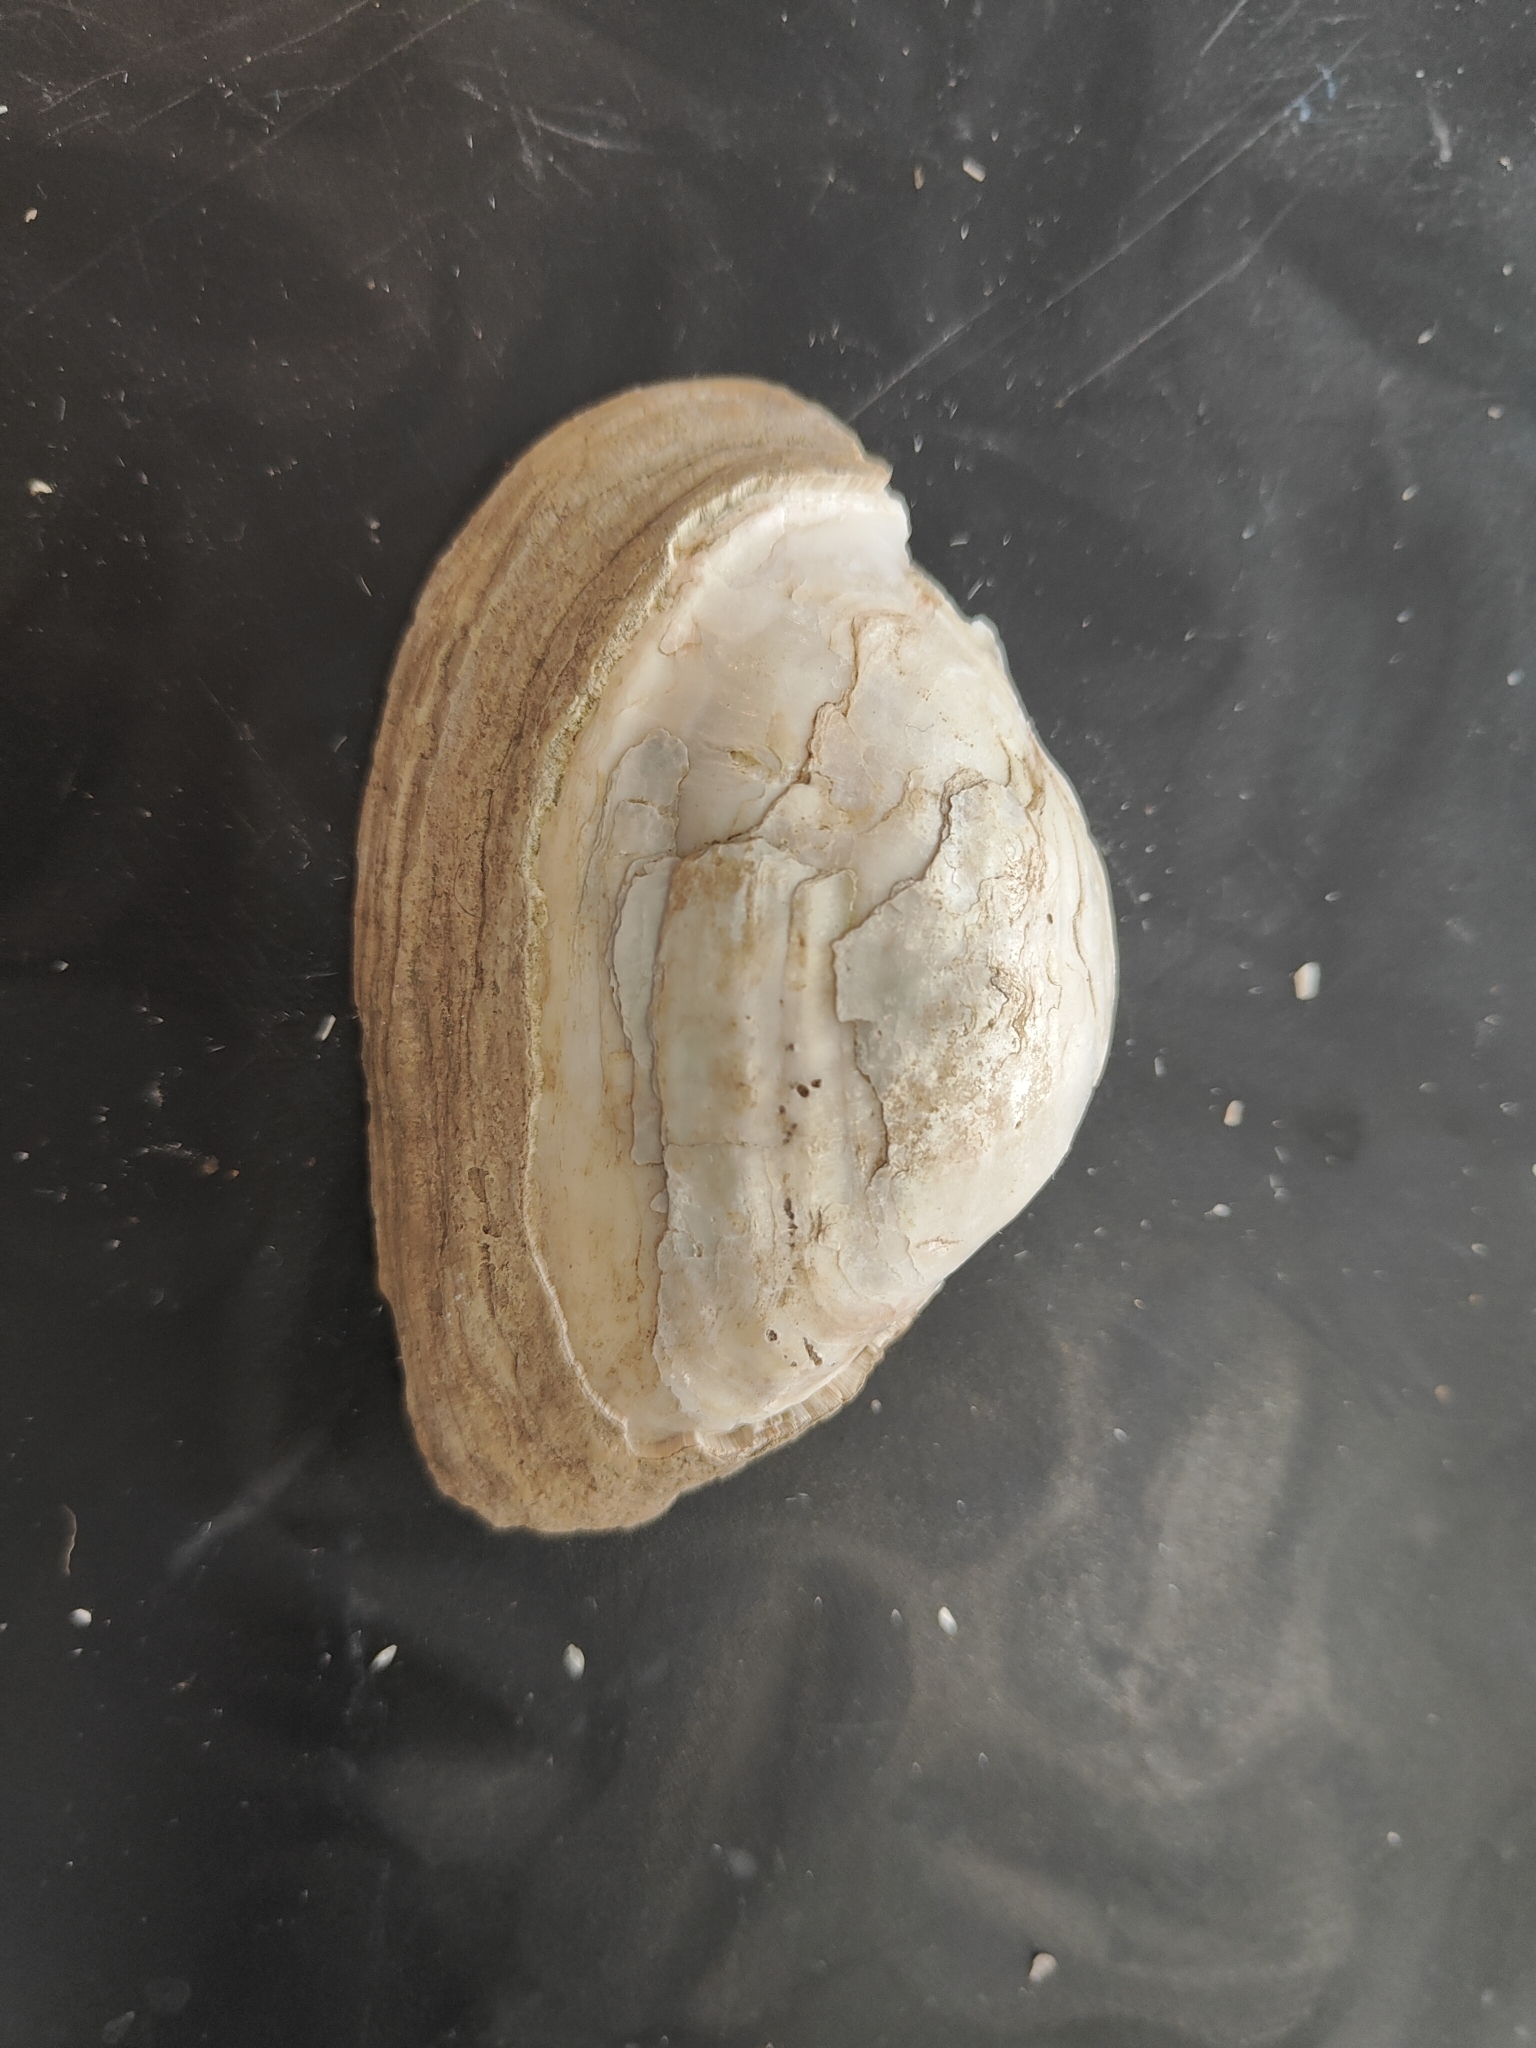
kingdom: Animalia
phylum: Mollusca
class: Bivalvia
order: Unionida
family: Unionidae
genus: Alasmidonta
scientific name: Alasmidonta marginata
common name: Elktoe
